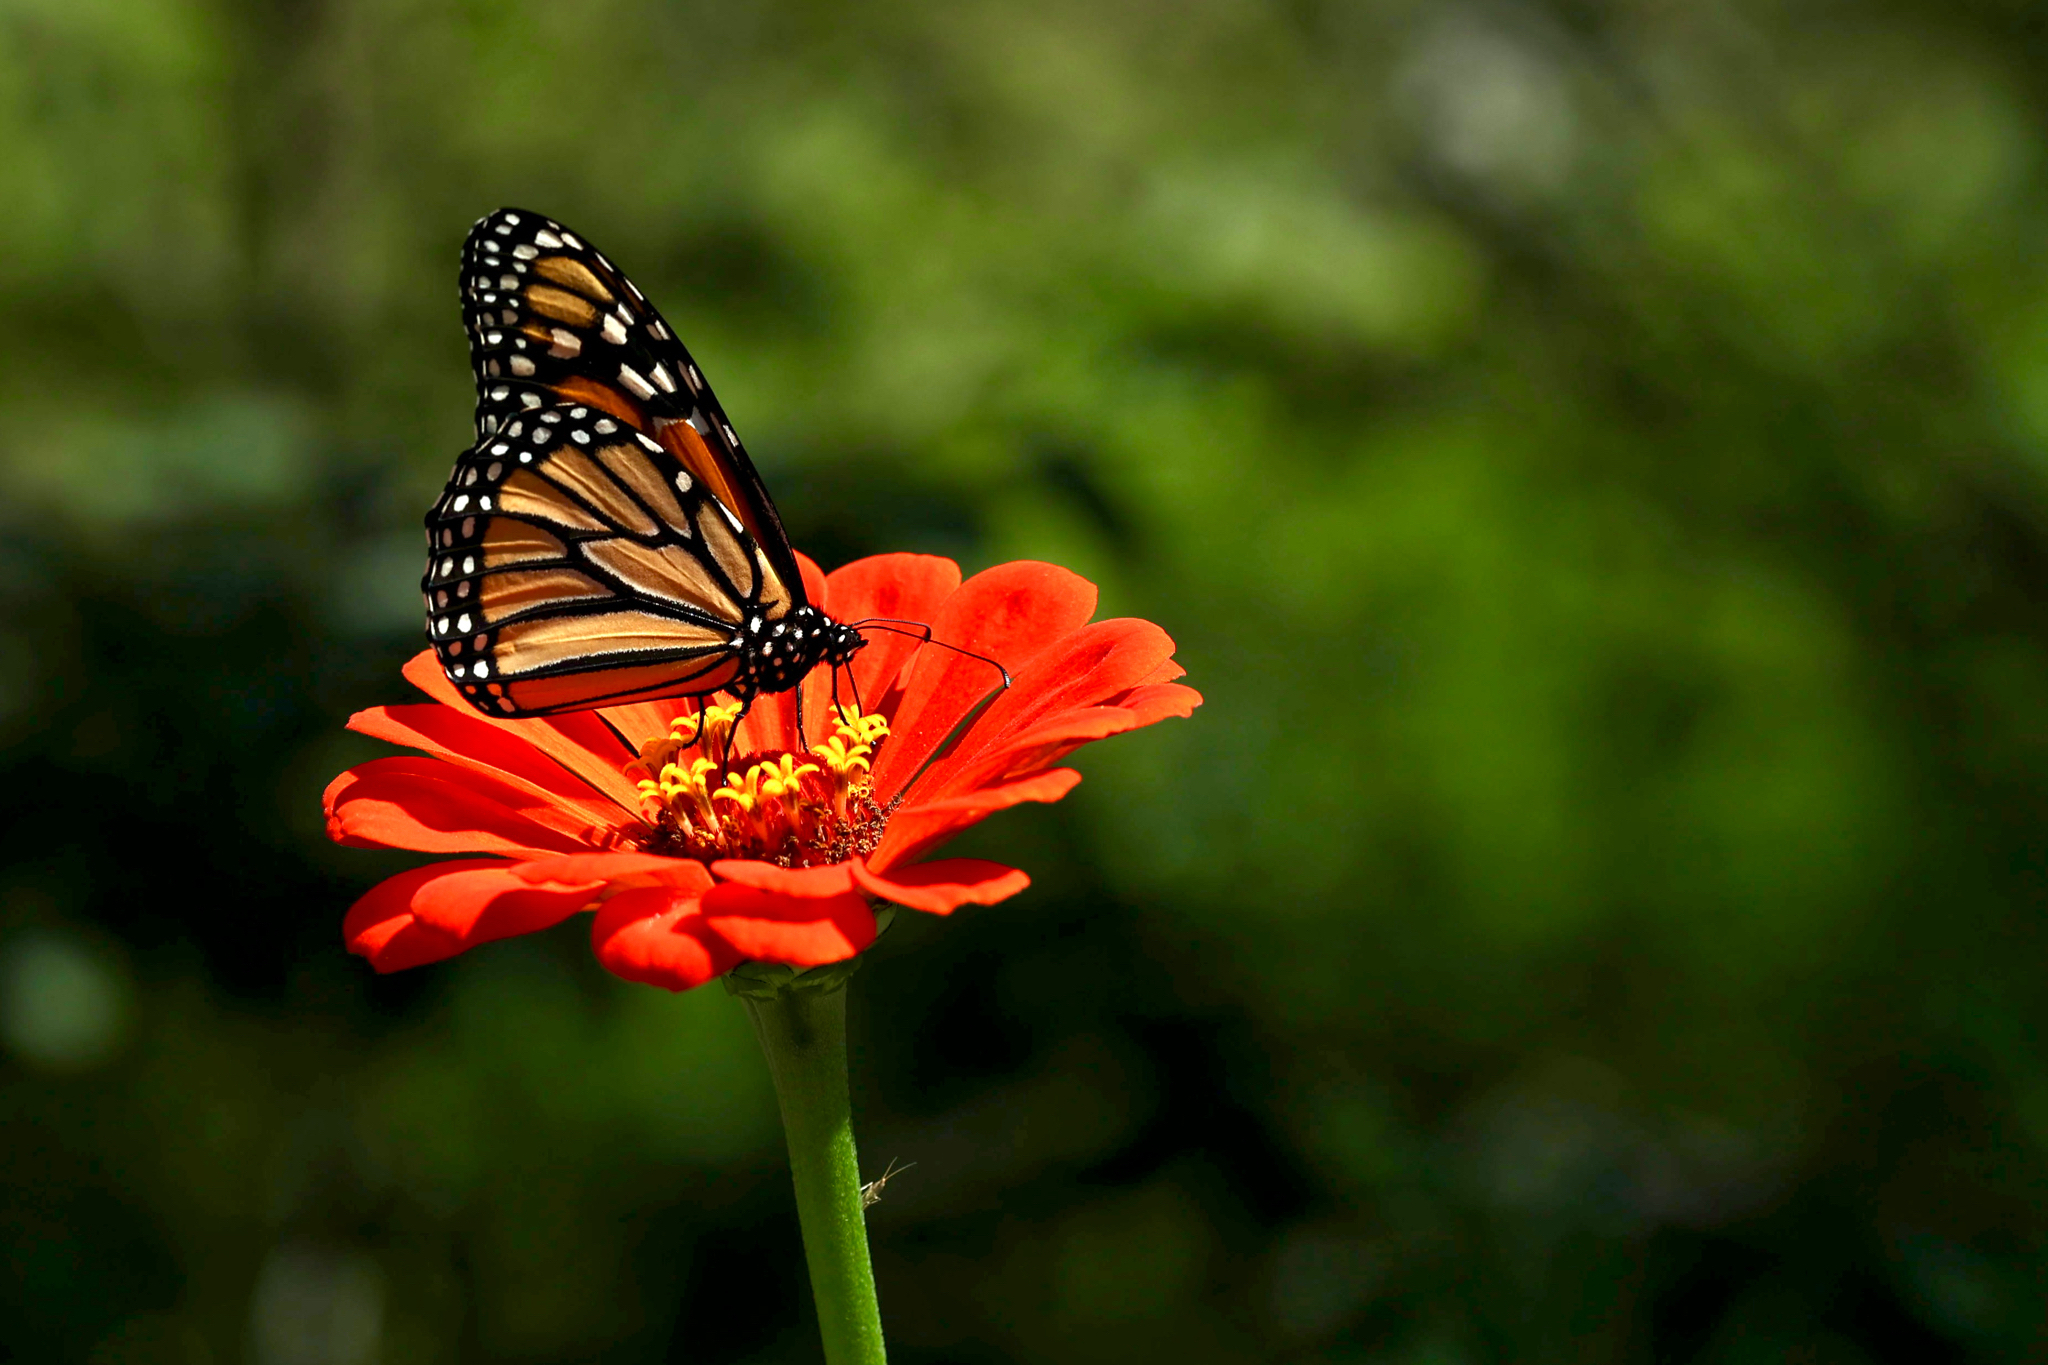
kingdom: Animalia
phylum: Arthropoda
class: Insecta
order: Lepidoptera
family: Nymphalidae
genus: Danaus
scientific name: Danaus plexippus
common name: Monarch
